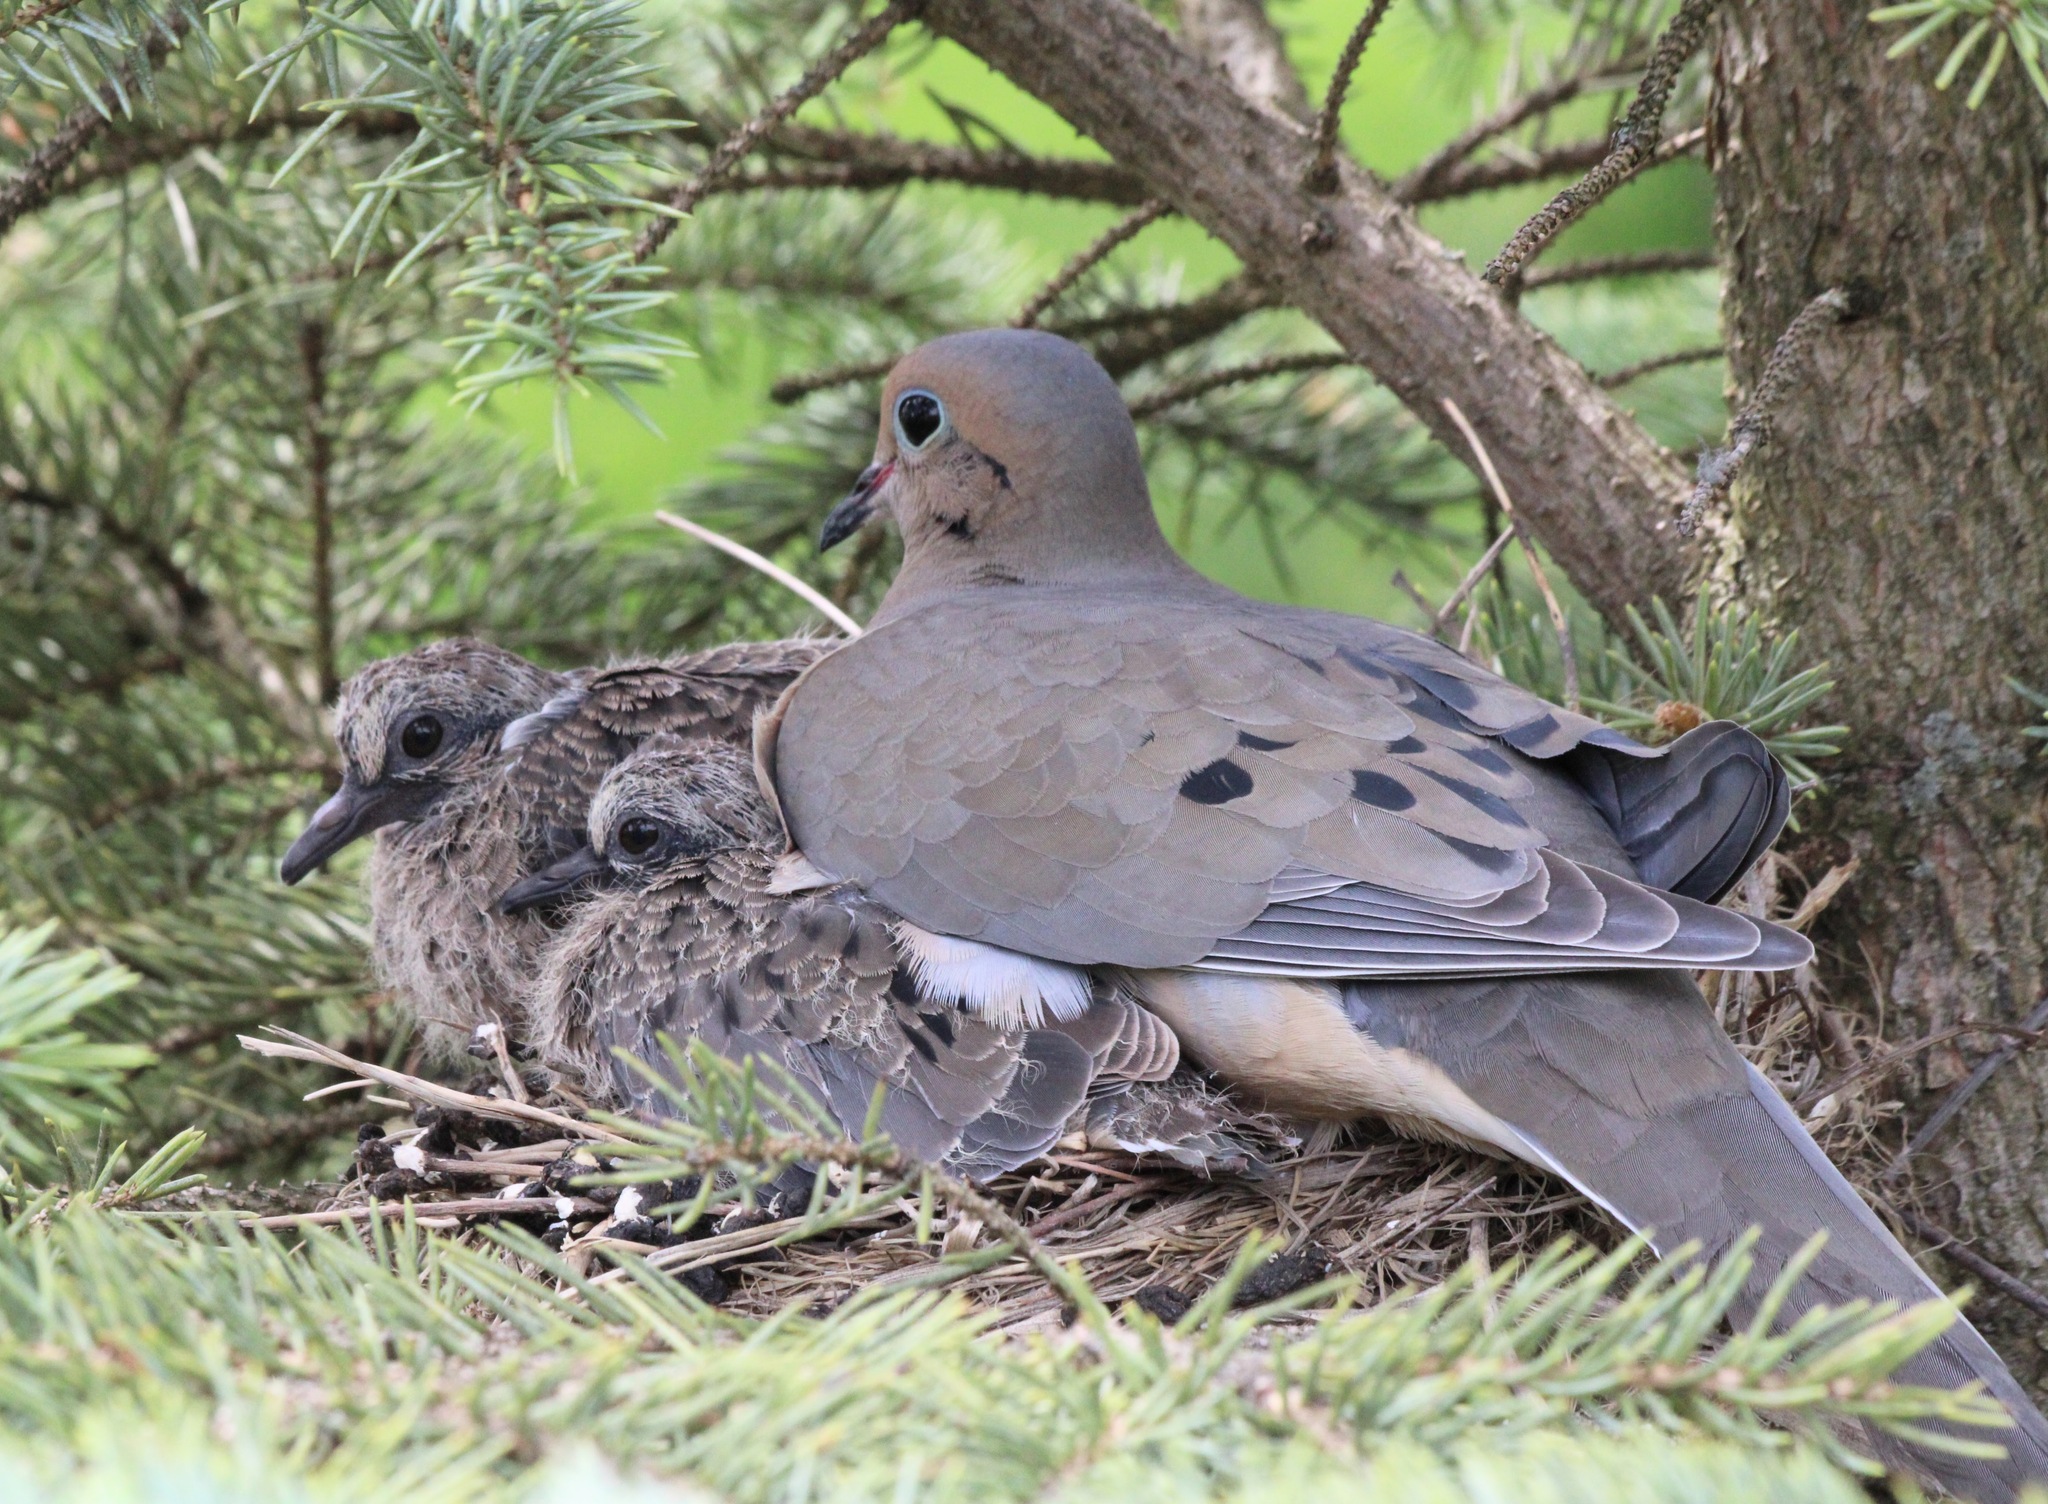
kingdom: Animalia
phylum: Chordata
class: Aves
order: Columbiformes
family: Columbidae
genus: Zenaida
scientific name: Zenaida macroura
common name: Mourning dove
